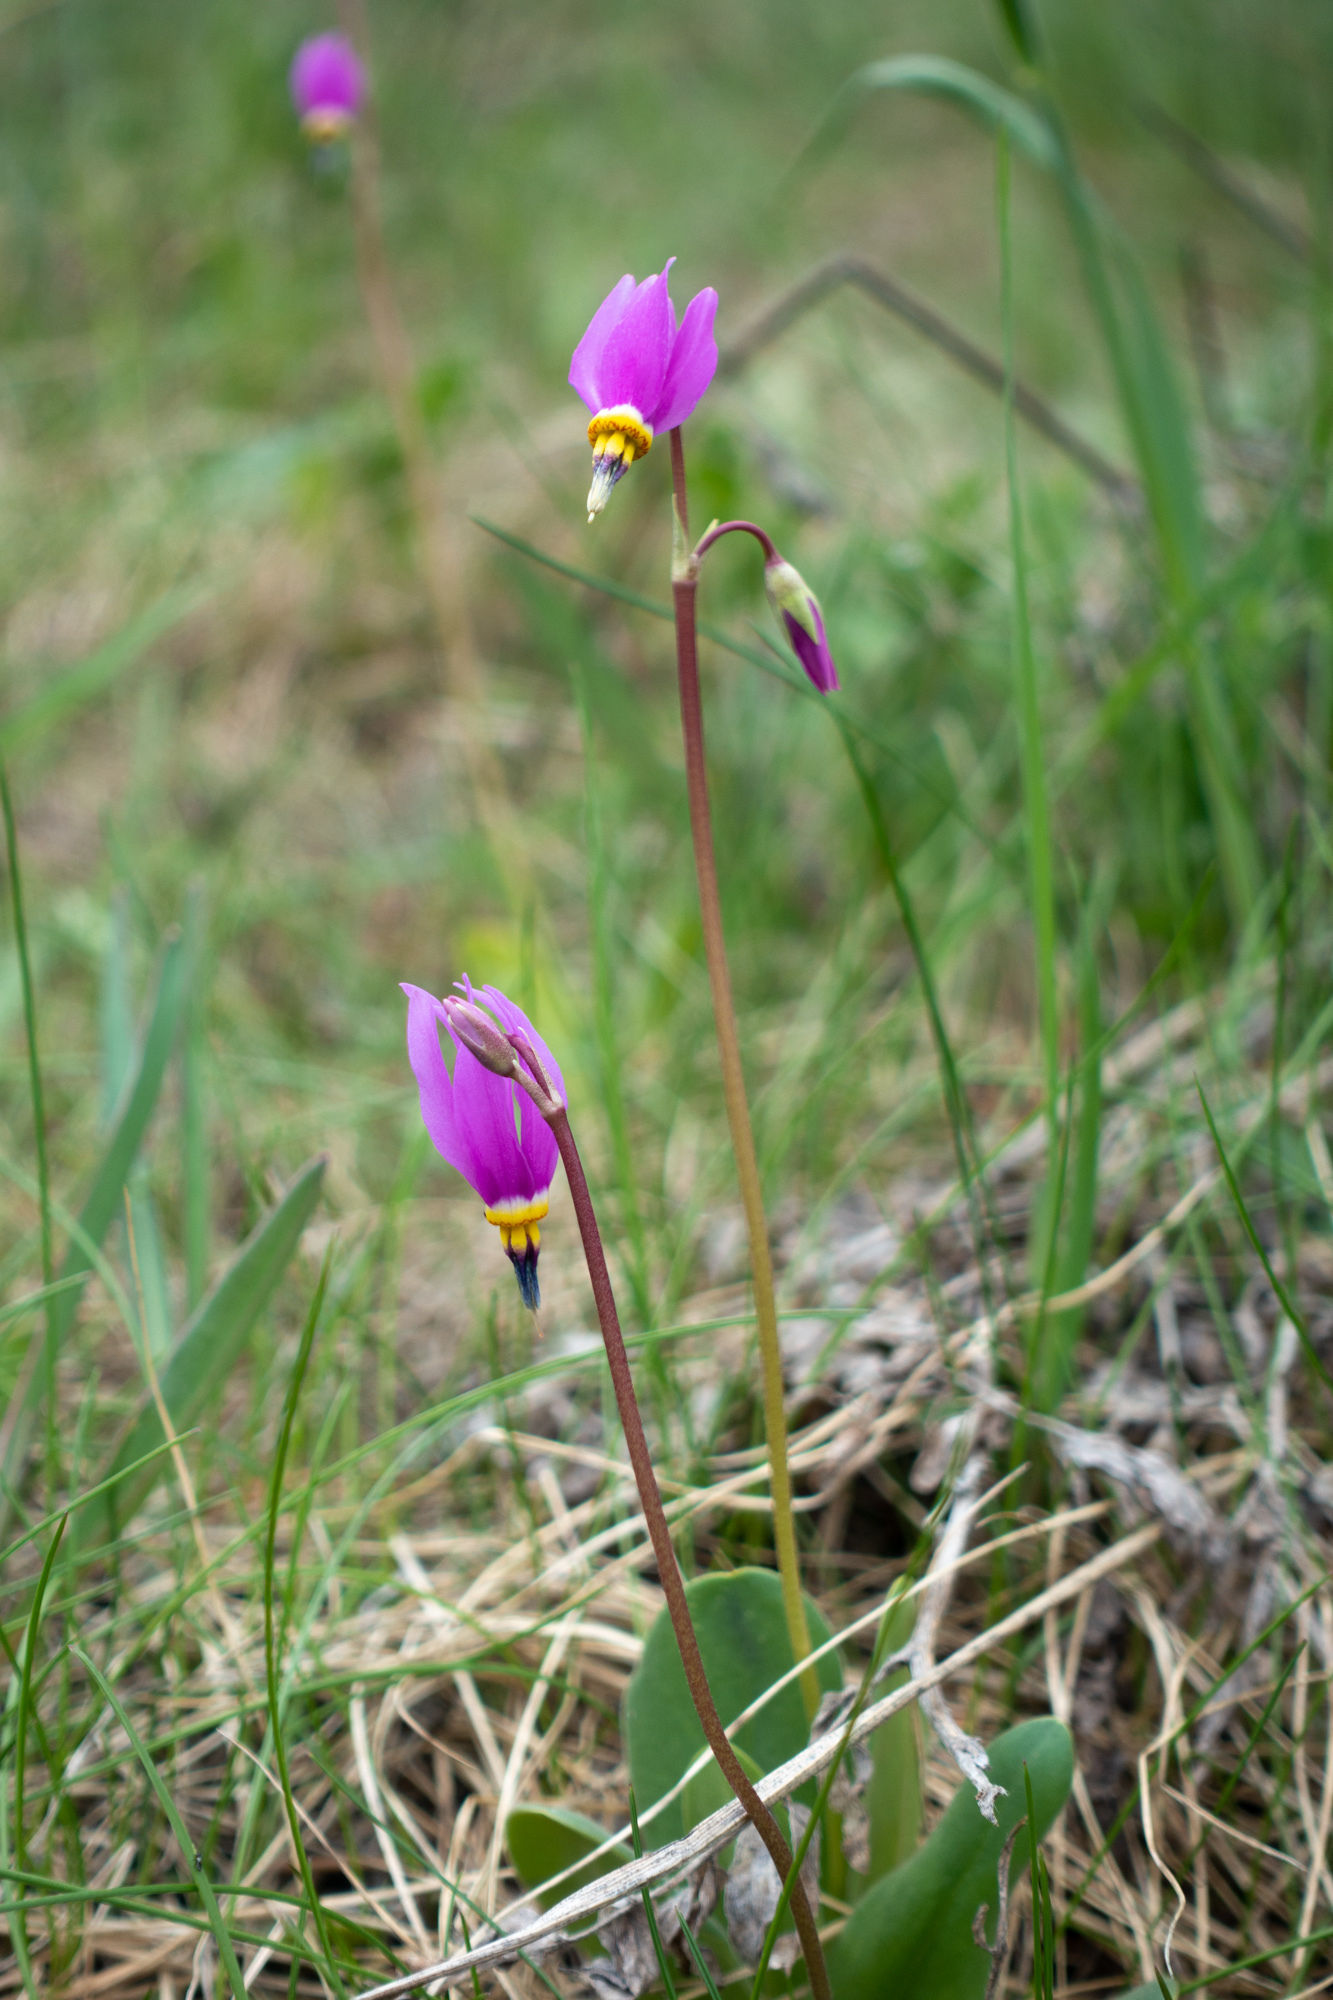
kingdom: Plantae
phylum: Tracheophyta
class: Magnoliopsida
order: Ericales
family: Primulaceae
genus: Dodecatheon
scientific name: Dodecatheon conjugens
